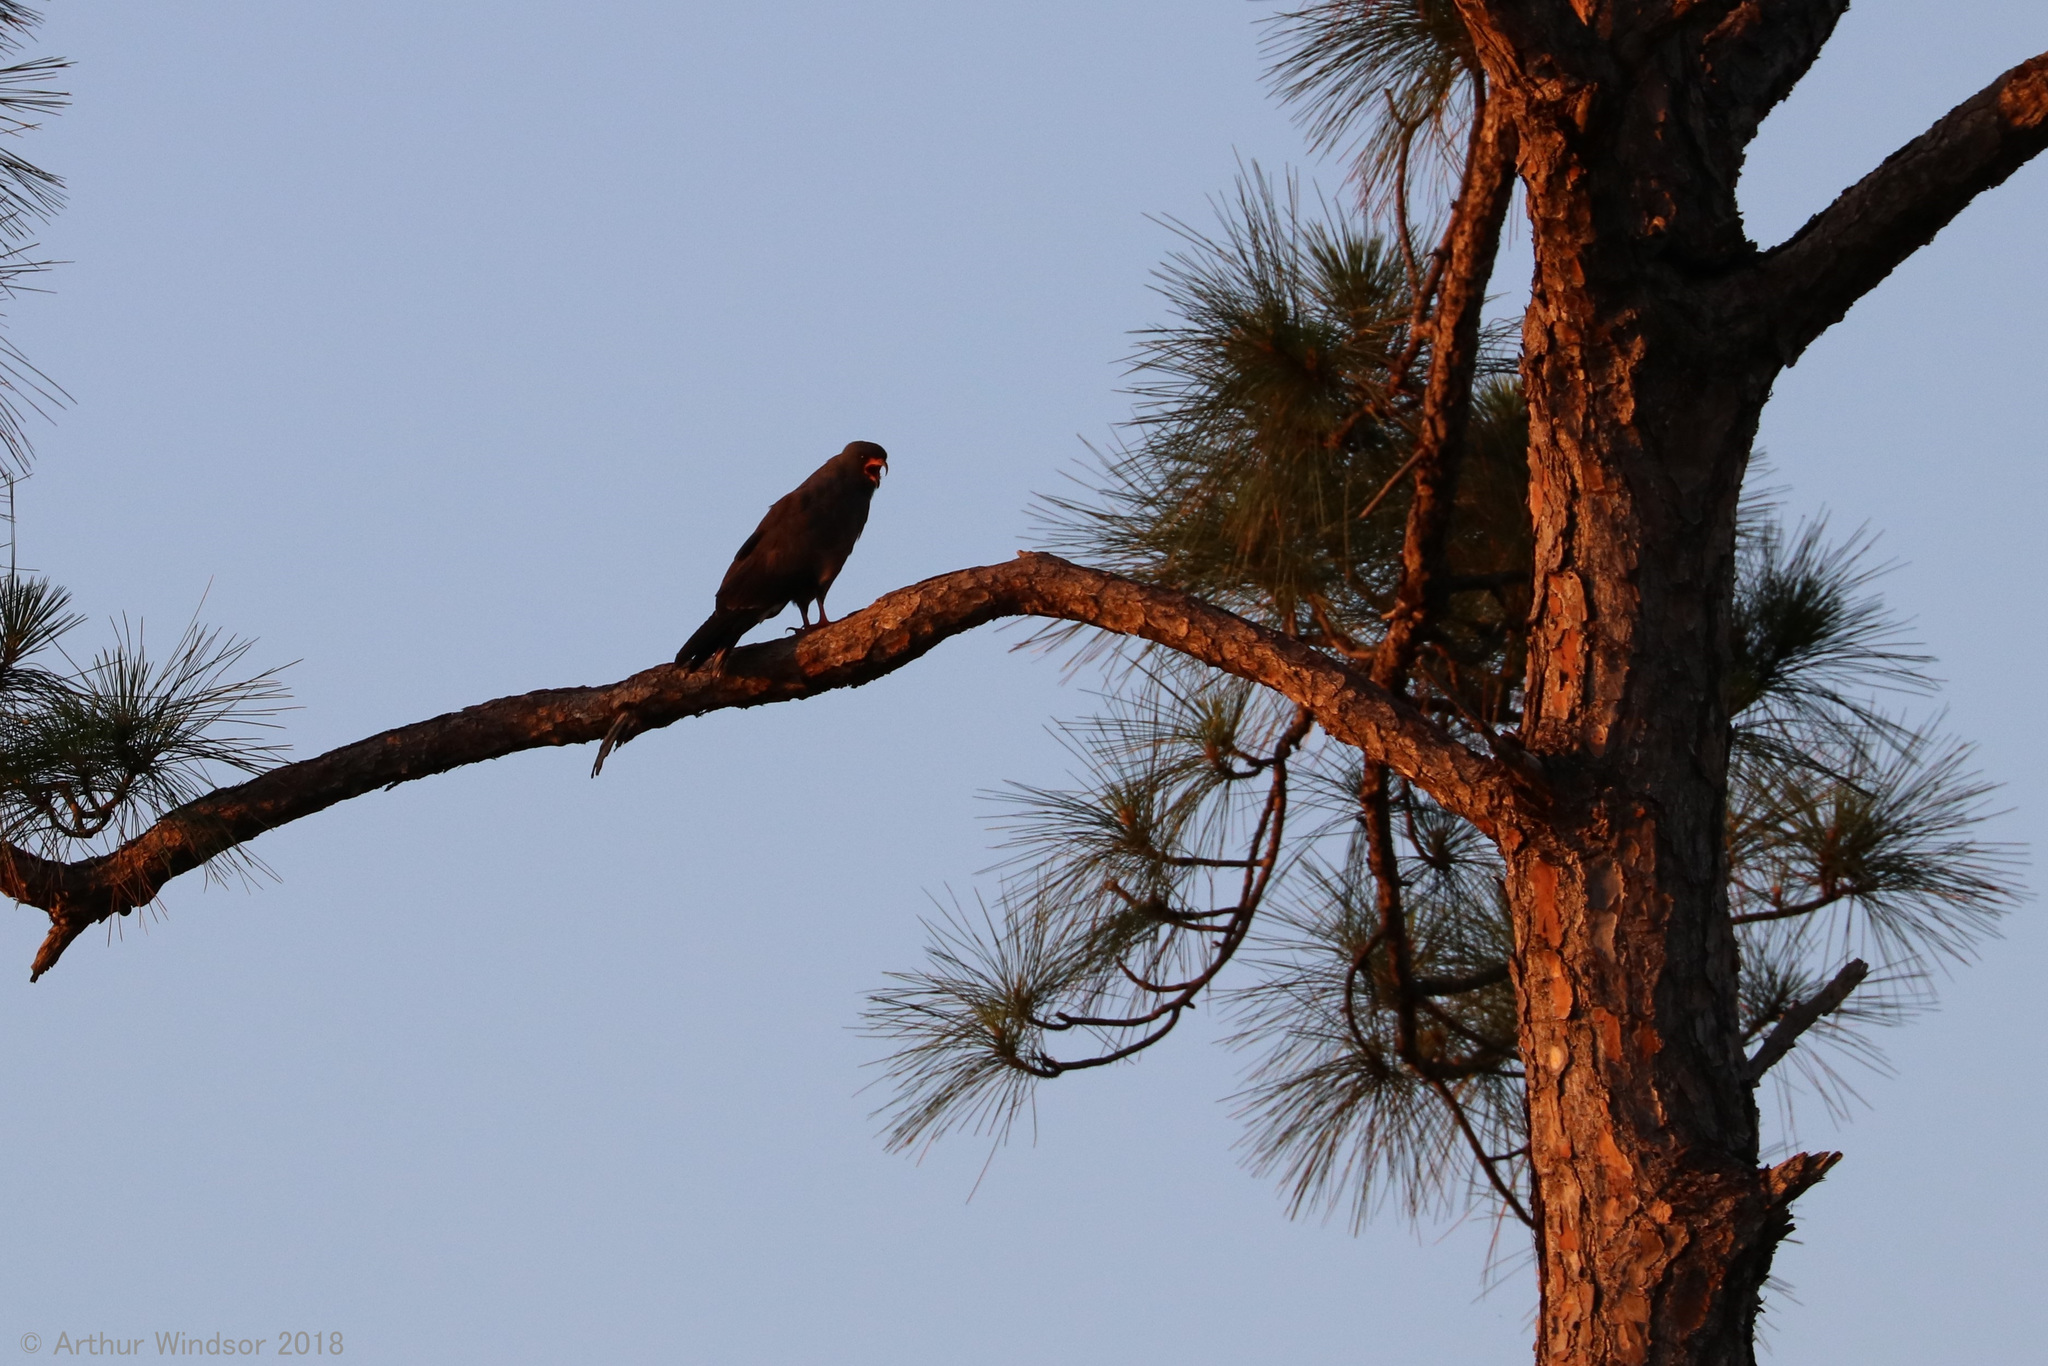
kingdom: Animalia
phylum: Chordata
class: Aves
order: Accipitriformes
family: Accipitridae
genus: Rostrhamus
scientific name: Rostrhamus sociabilis
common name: Snail kite
